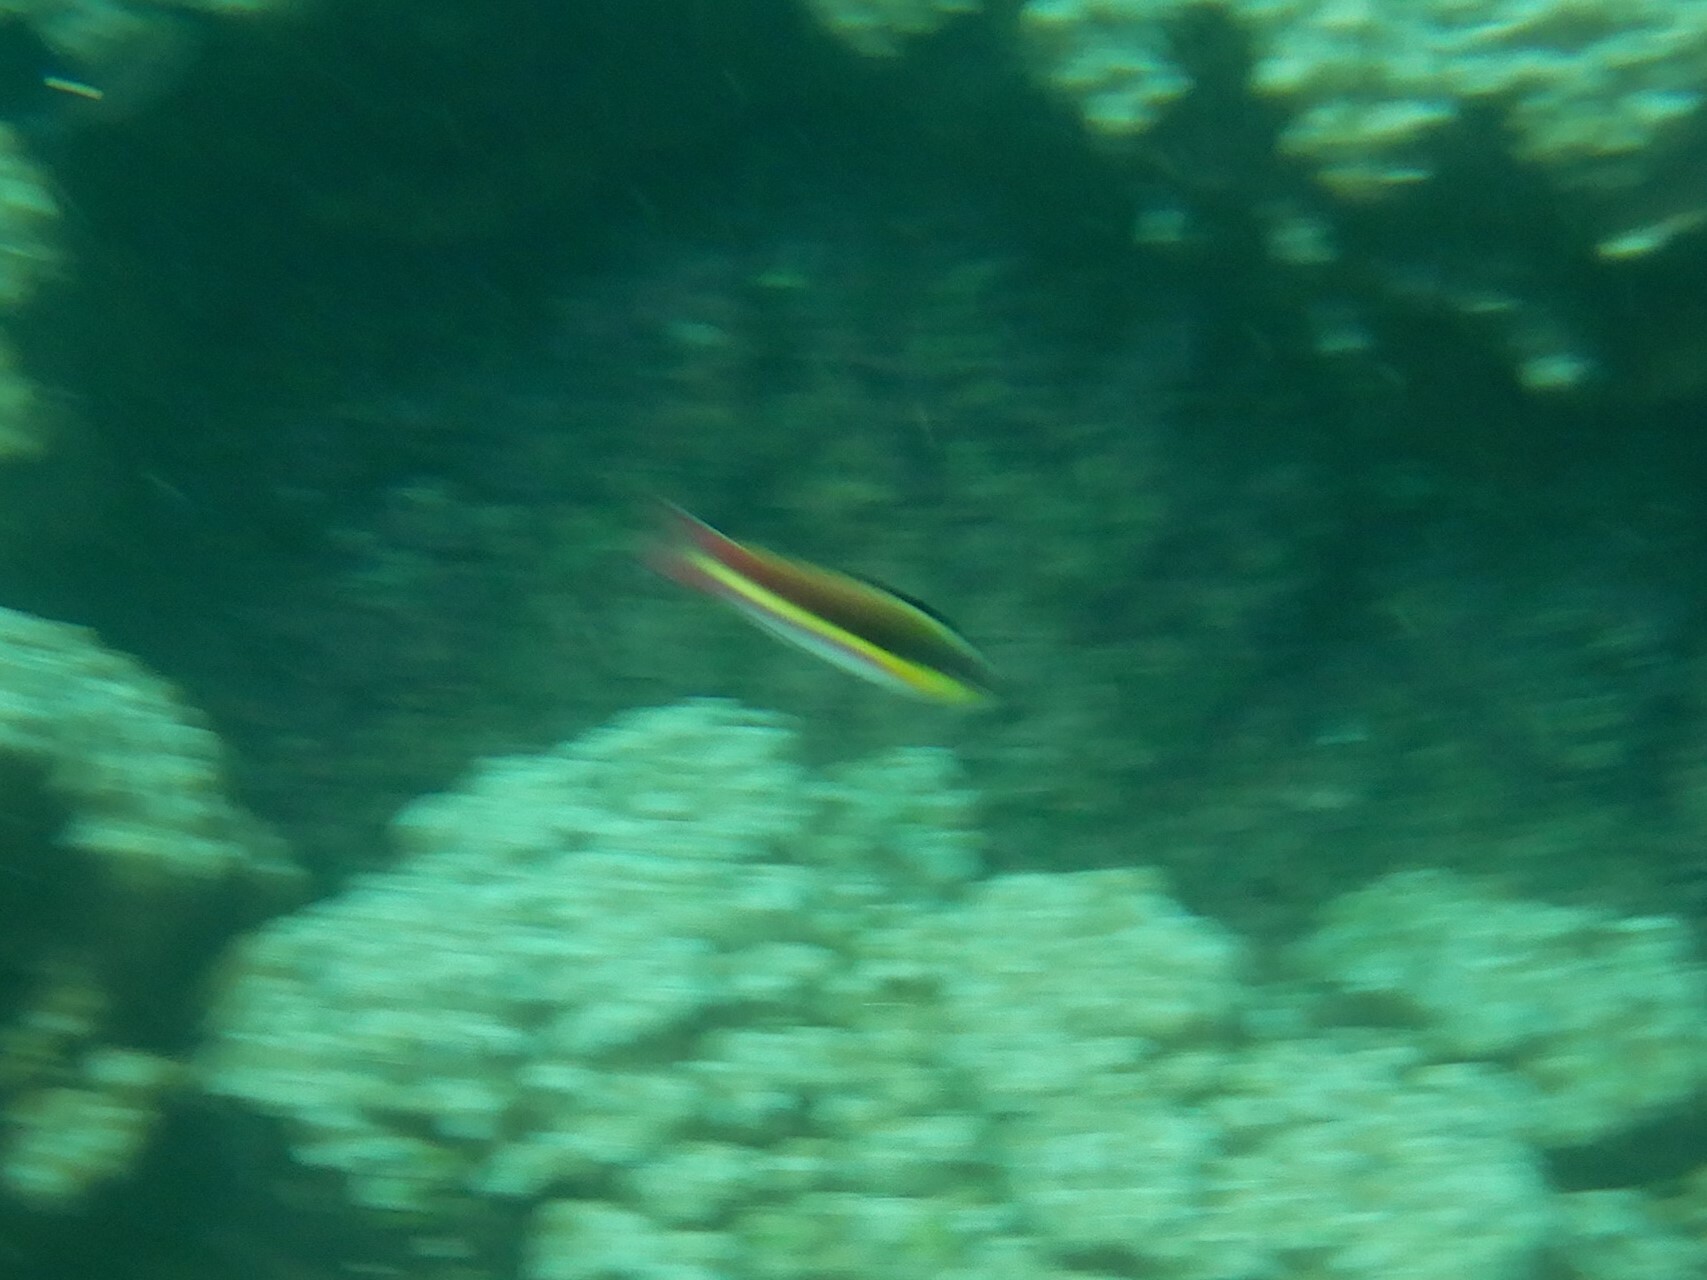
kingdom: Animalia
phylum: Chordata
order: Perciformes
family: Labridae
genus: Thalassoma
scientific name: Thalassoma lucasanum
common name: Cortez rainbow wrasse
